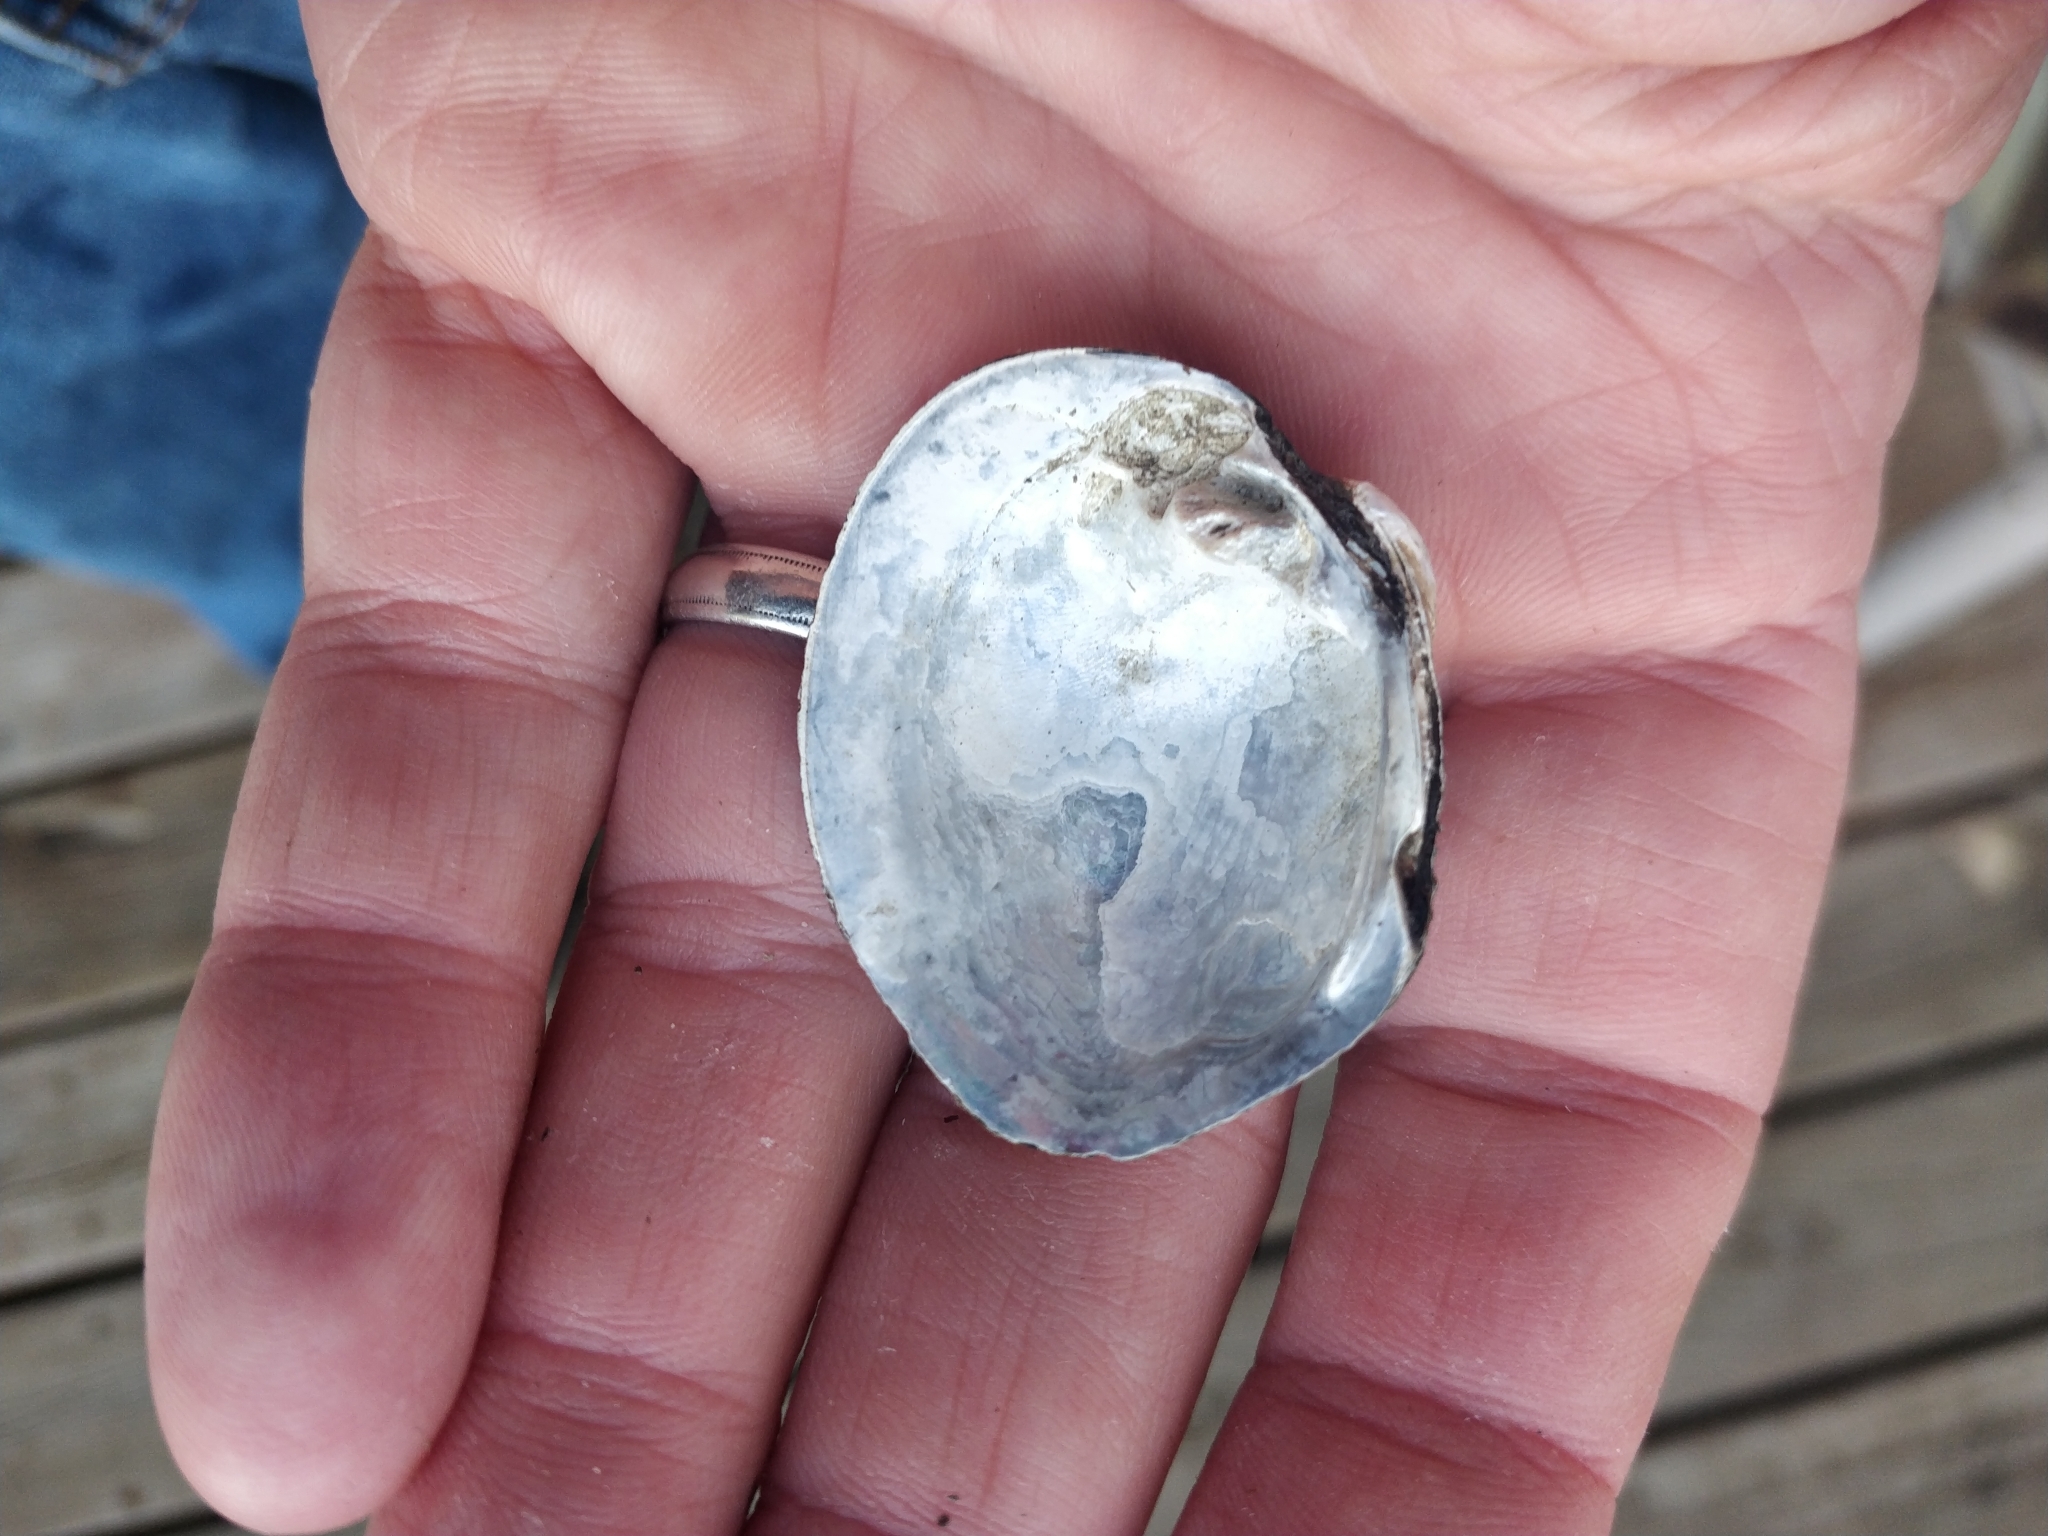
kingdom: Animalia
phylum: Mollusca
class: Bivalvia
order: Unionida
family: Unionidae
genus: Cyclonaias
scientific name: Cyclonaias pustulosa
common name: Pimpleback
